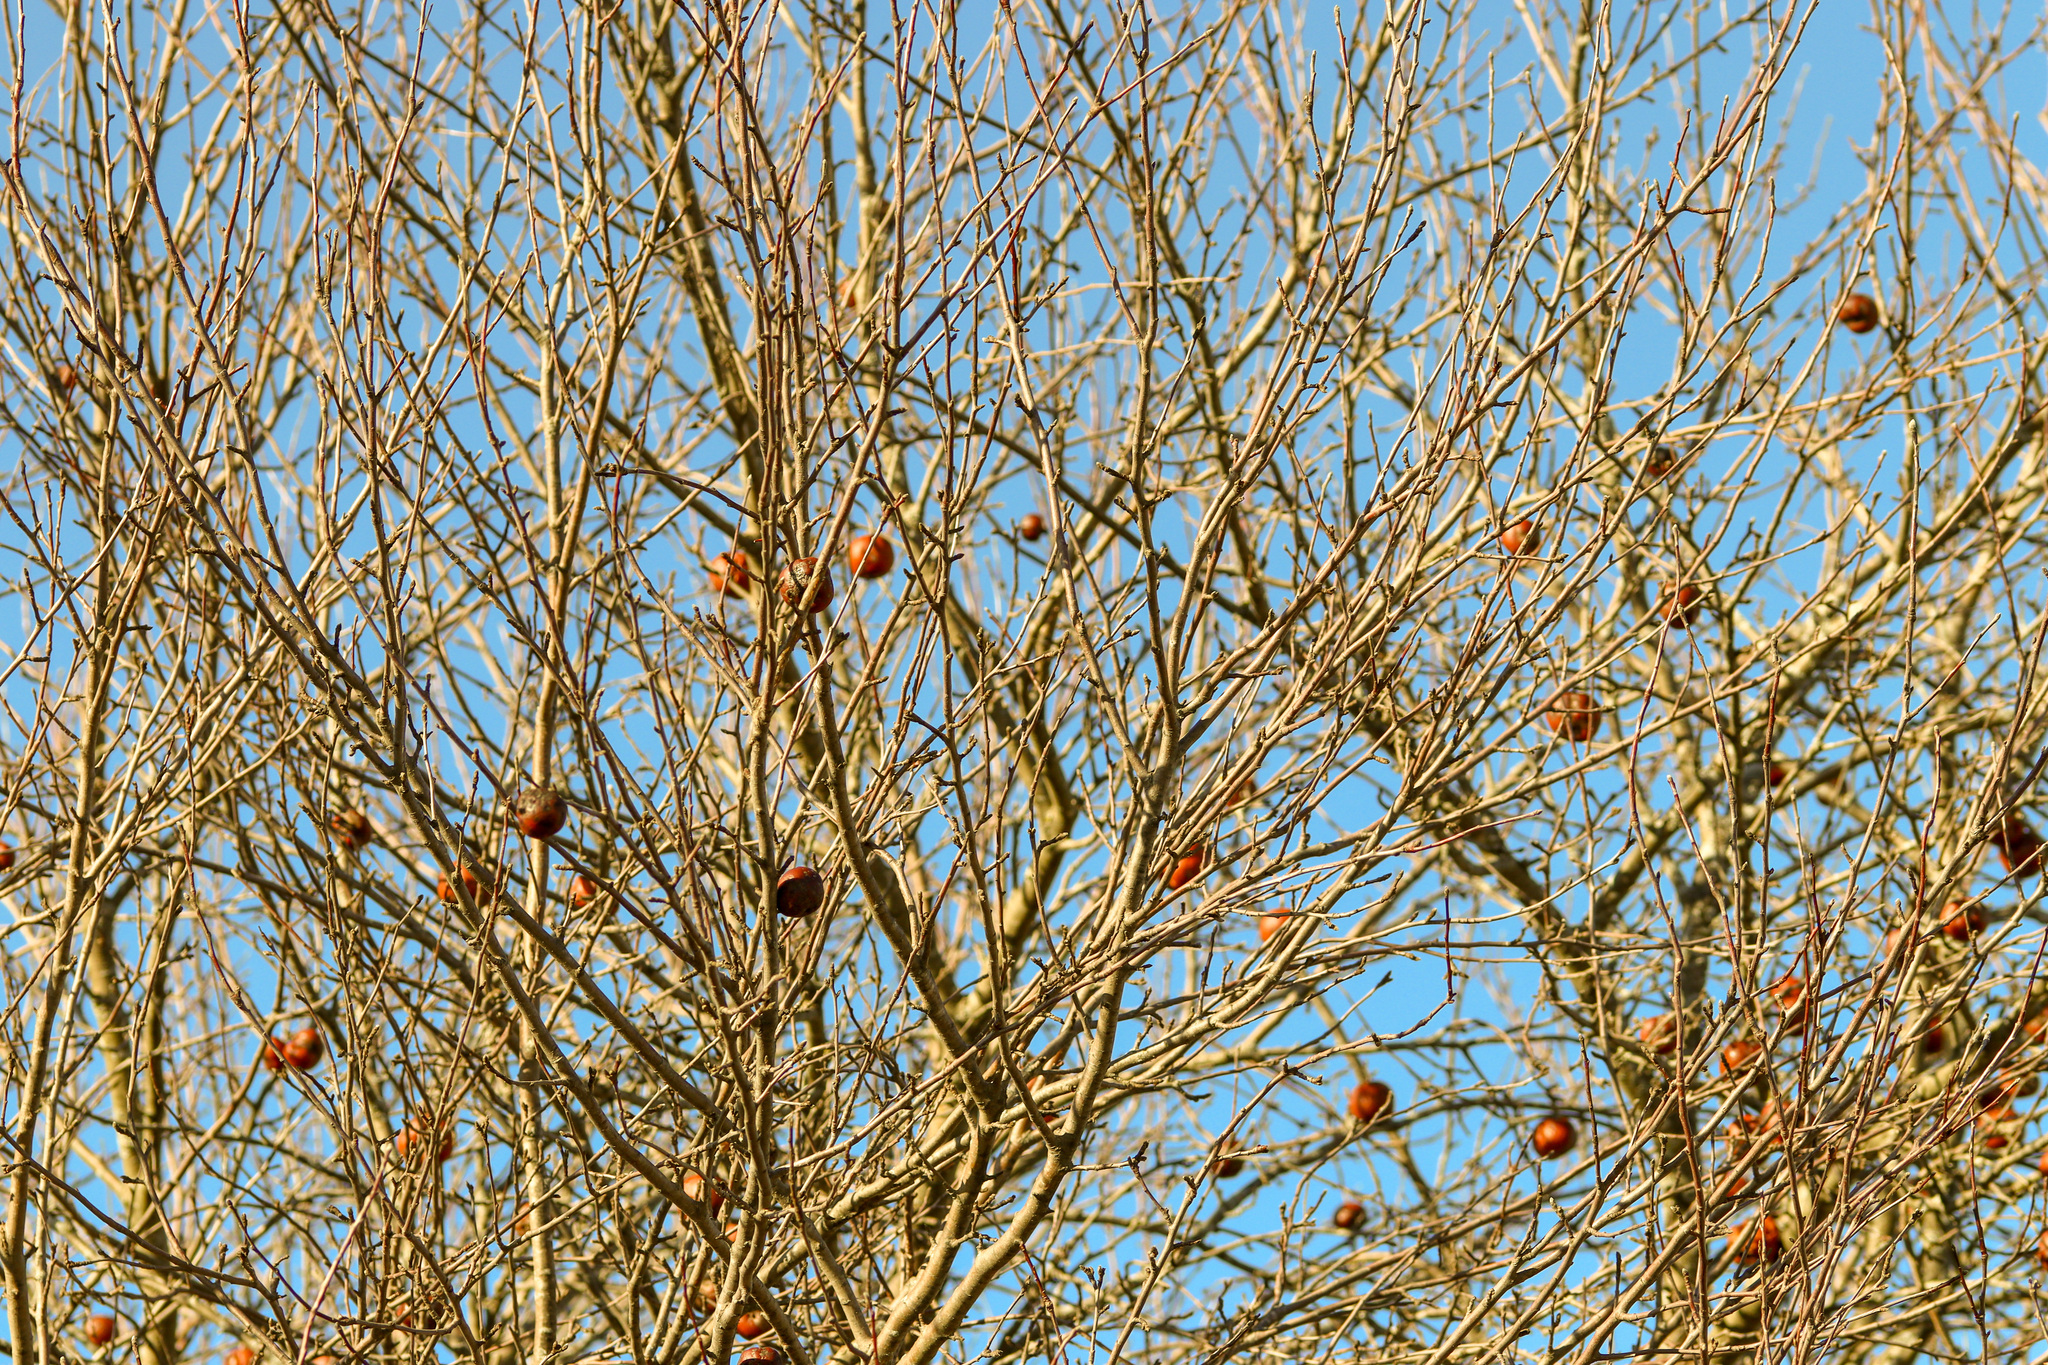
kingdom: Plantae
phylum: Tracheophyta
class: Magnoliopsida
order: Rosales
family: Rosaceae
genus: Malus
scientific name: Malus domestica
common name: Apple
